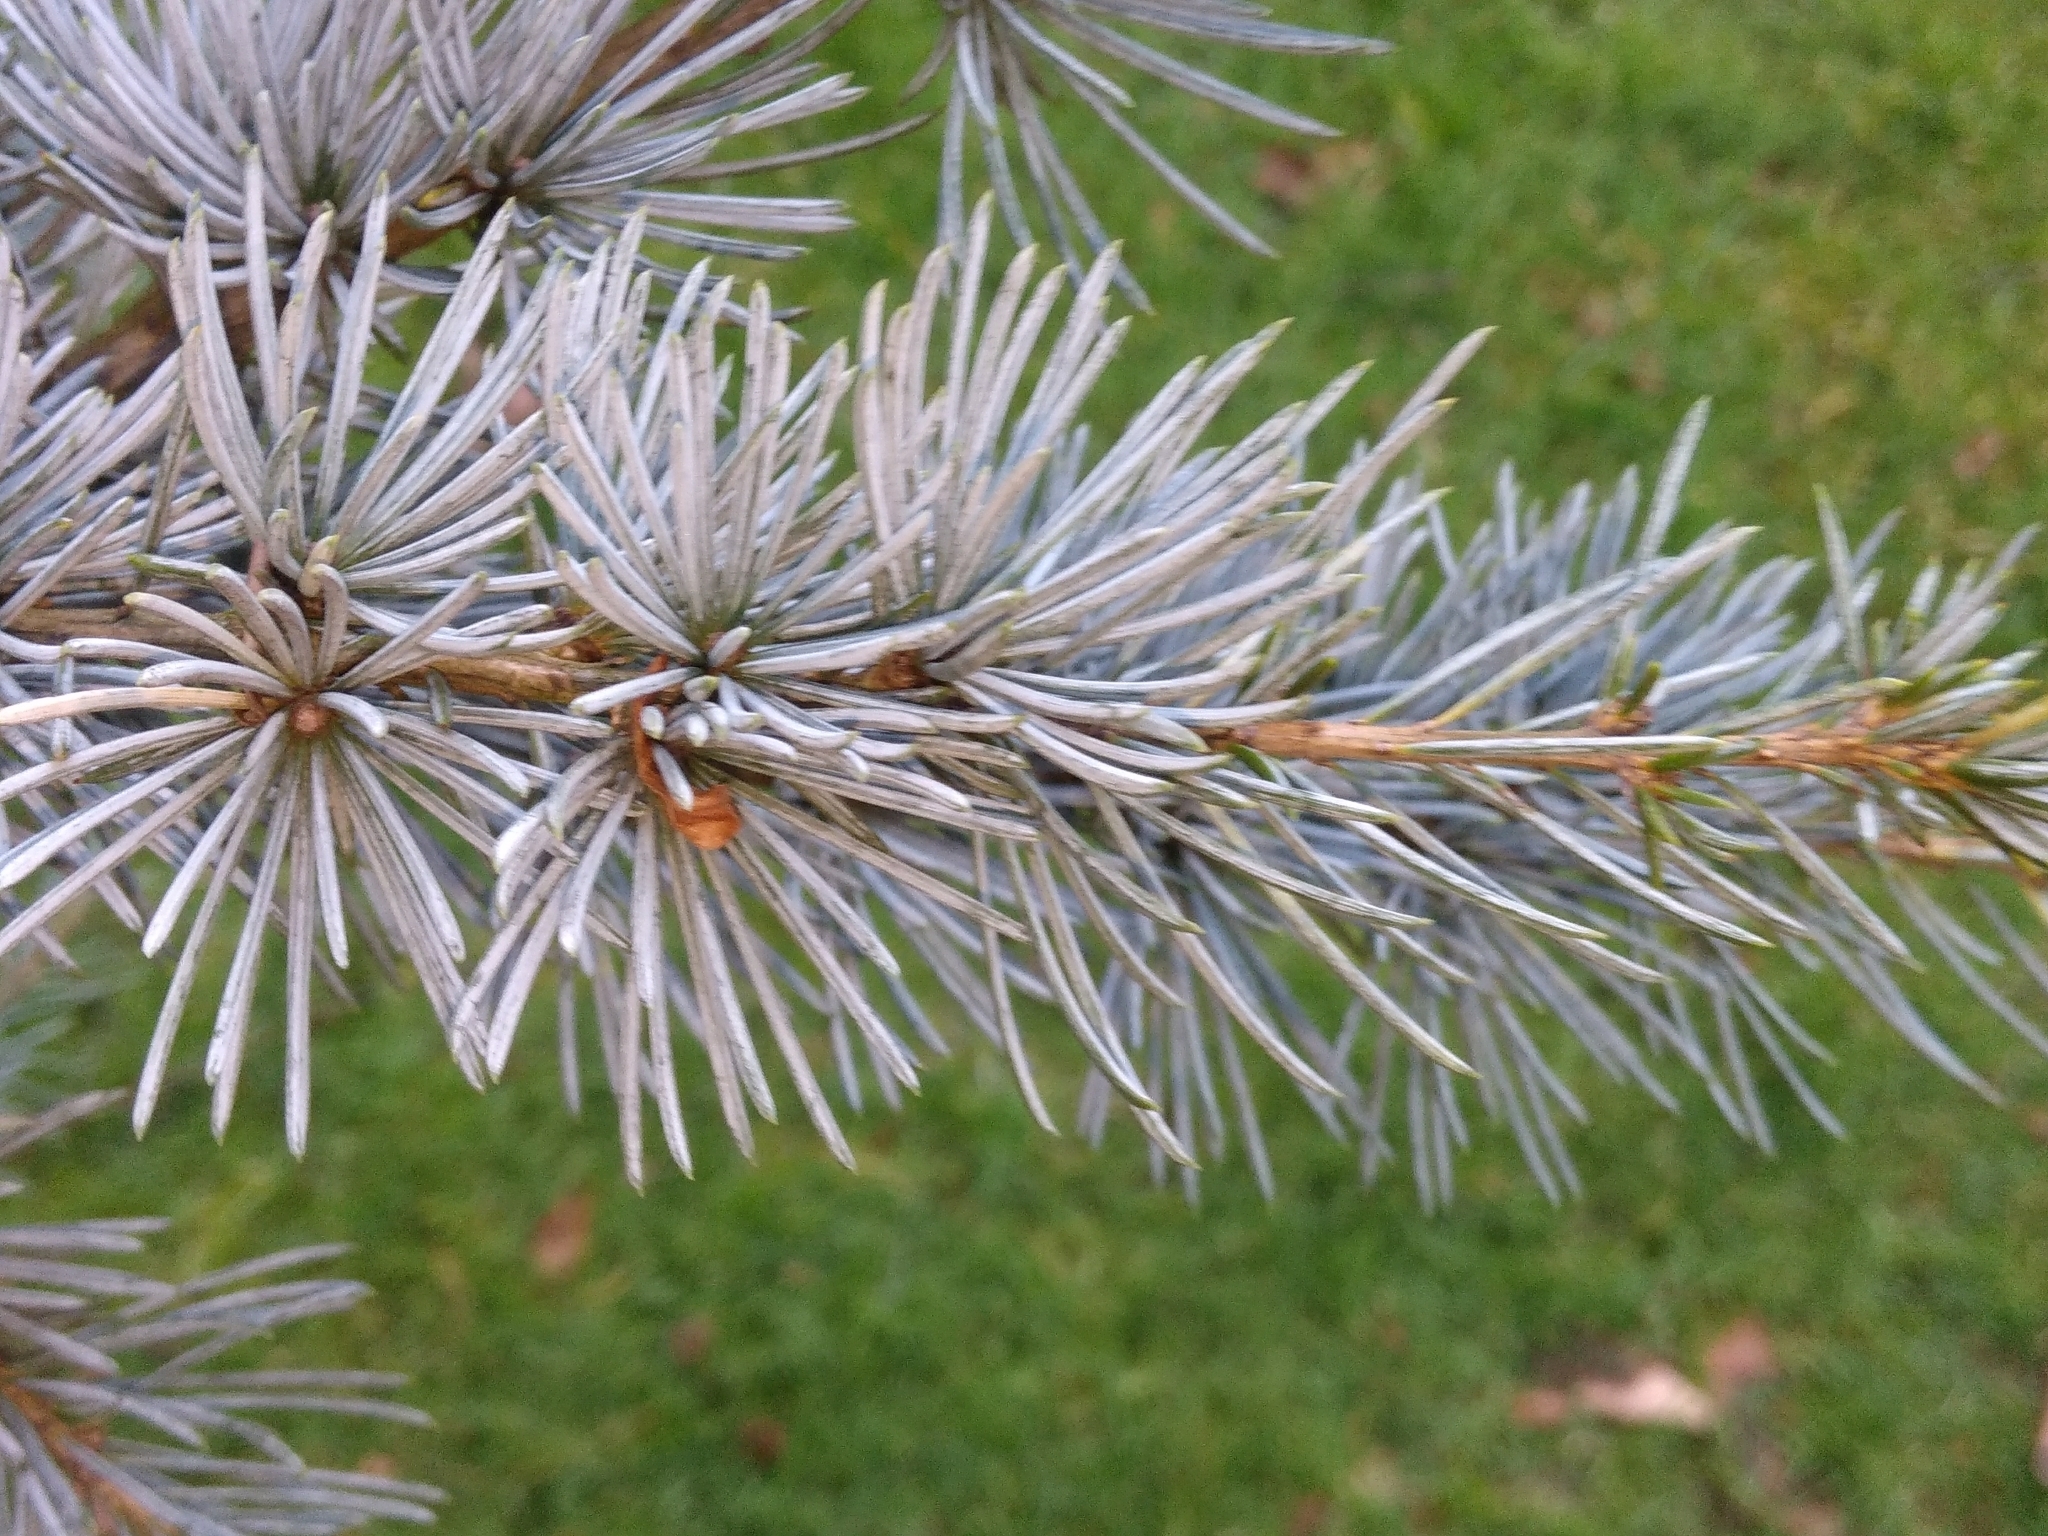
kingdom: Plantae
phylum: Tracheophyta
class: Pinopsida
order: Pinales
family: Pinaceae
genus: Cedrus
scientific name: Cedrus atlantica
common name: Atlas cedar
